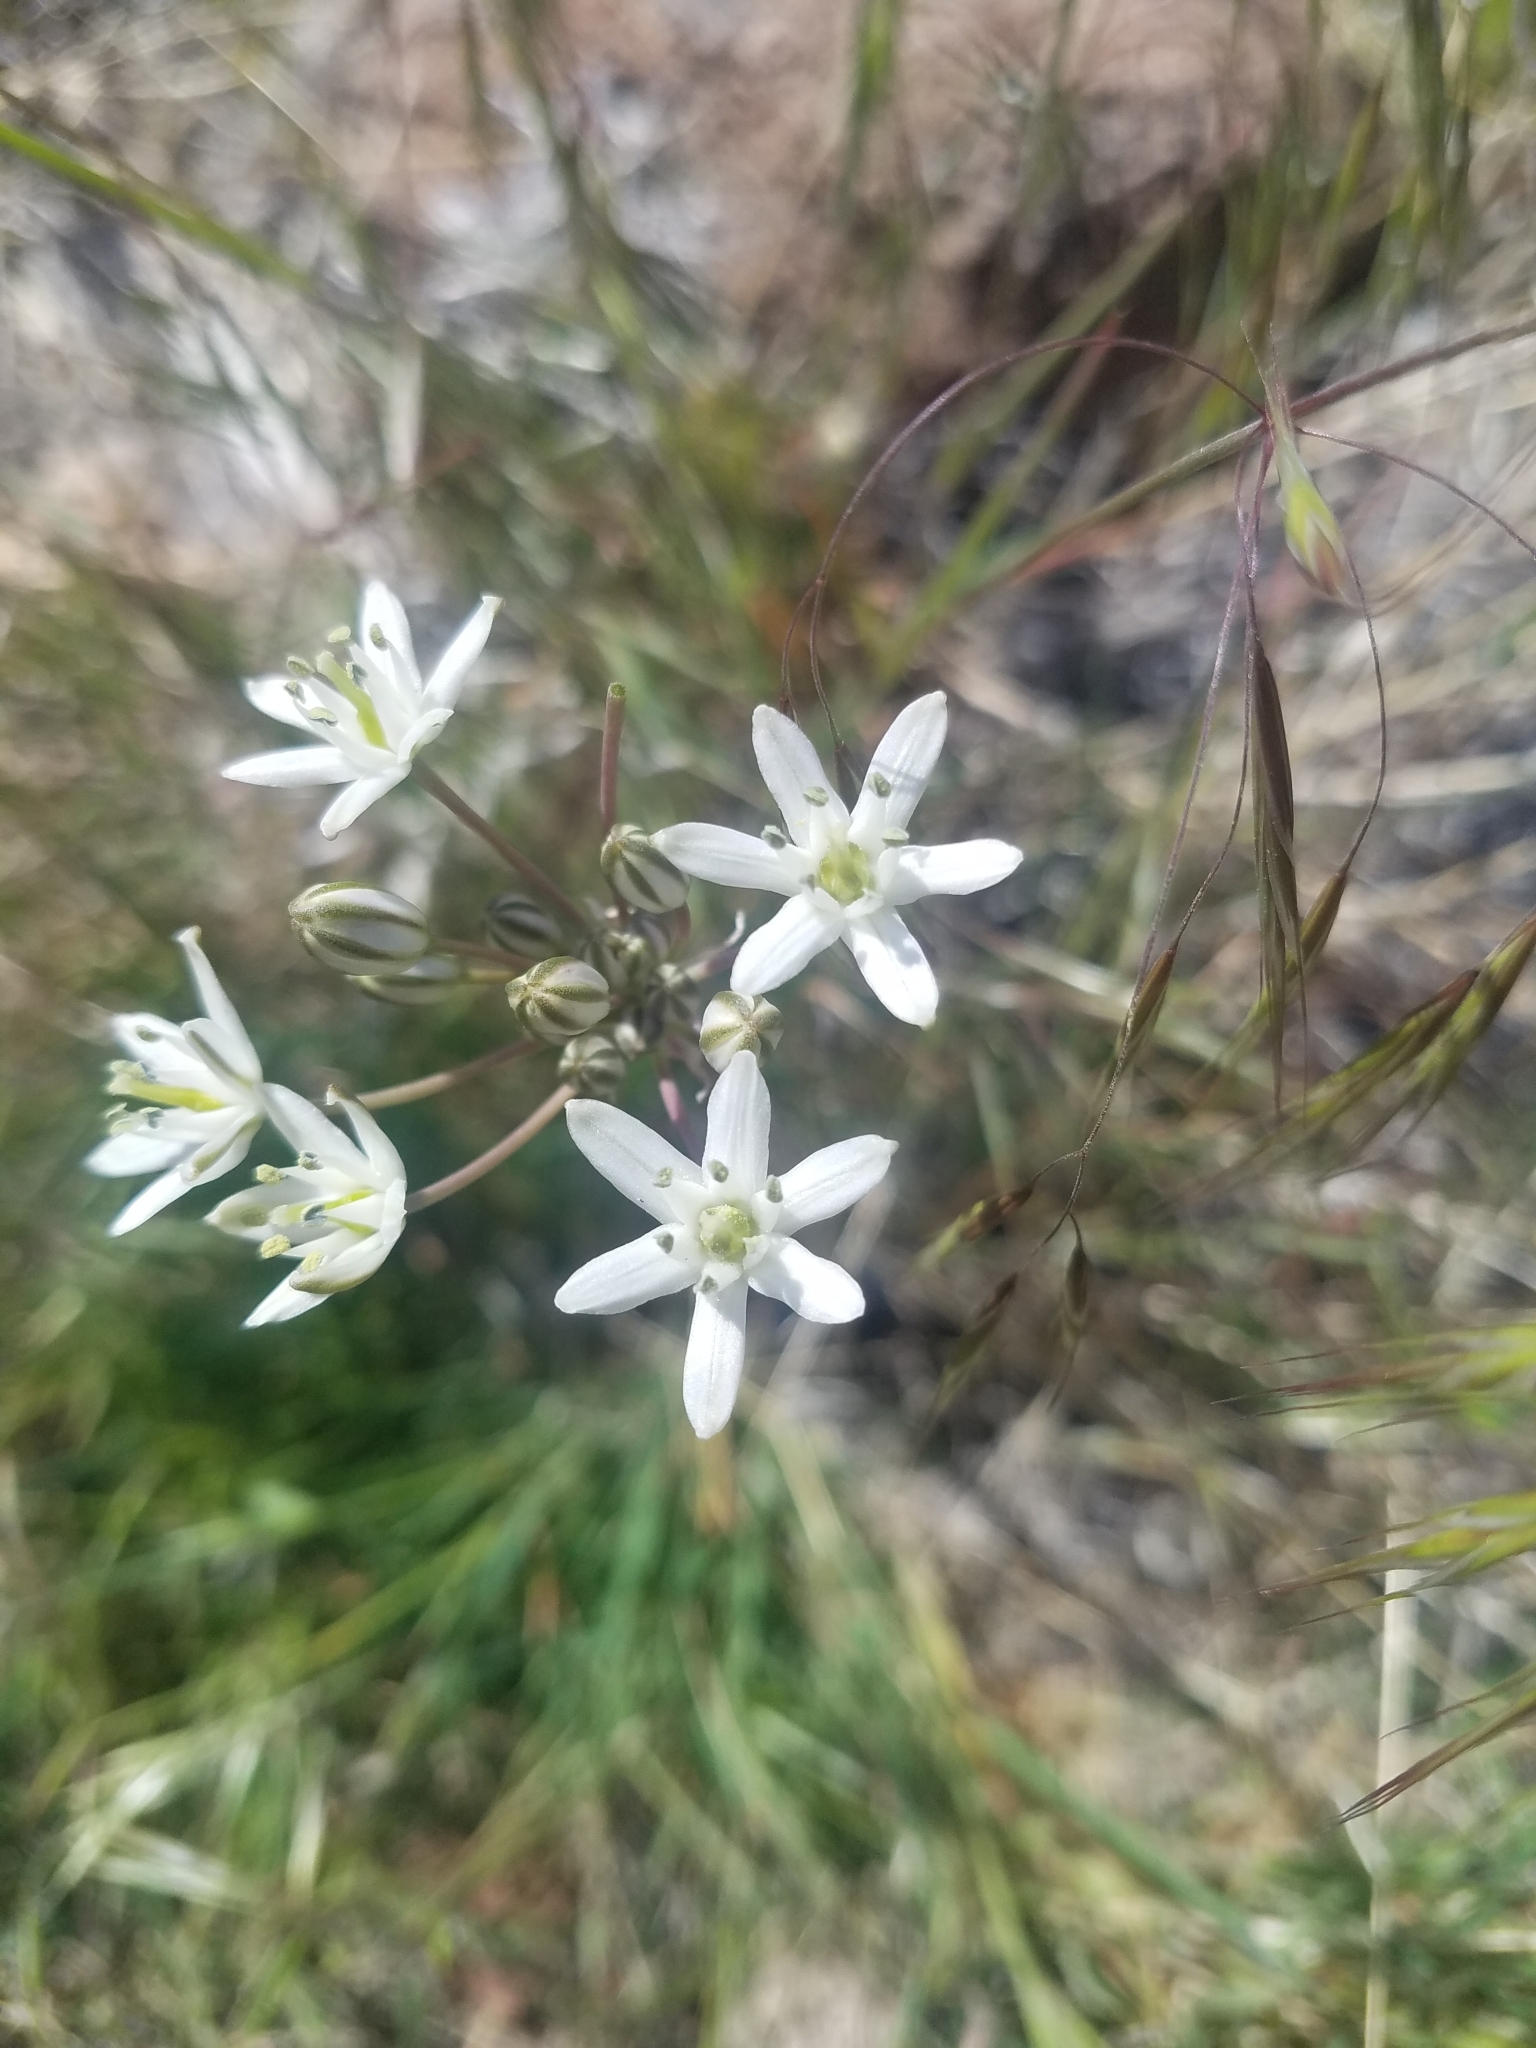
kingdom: Plantae
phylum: Tracheophyta
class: Liliopsida
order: Asparagales
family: Asparagaceae
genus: Muilla
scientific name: Muilla transmontana
